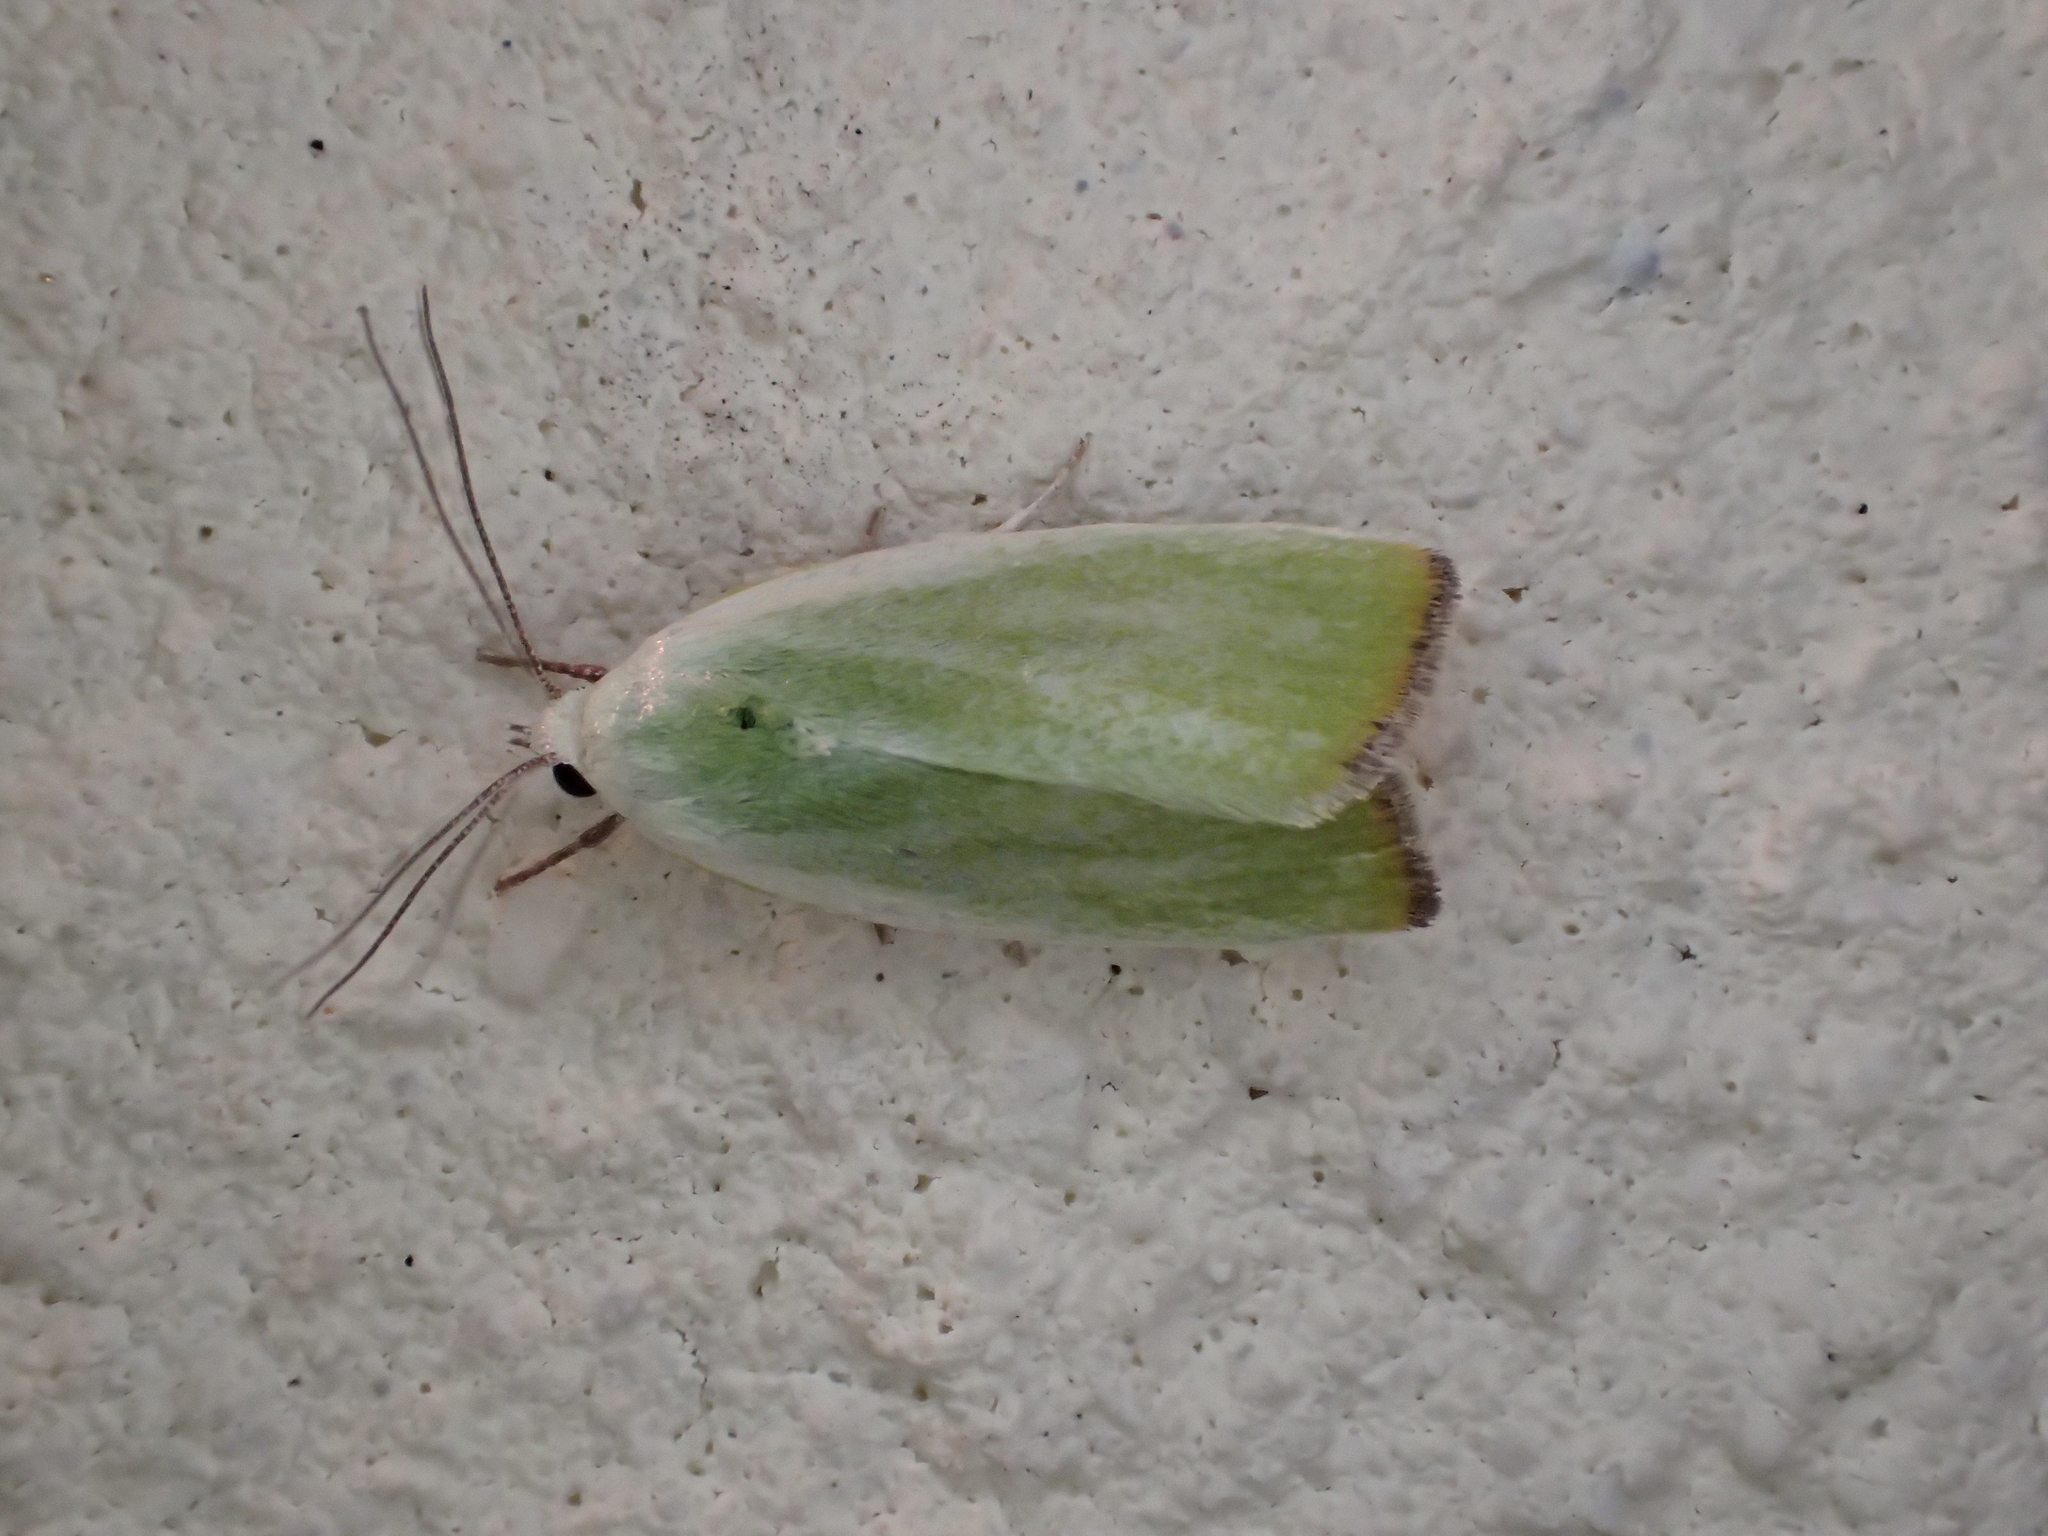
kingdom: Animalia
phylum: Arthropoda
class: Insecta
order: Lepidoptera
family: Nolidae
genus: Earias
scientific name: Earias clorana
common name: Cream-bordered green pea
